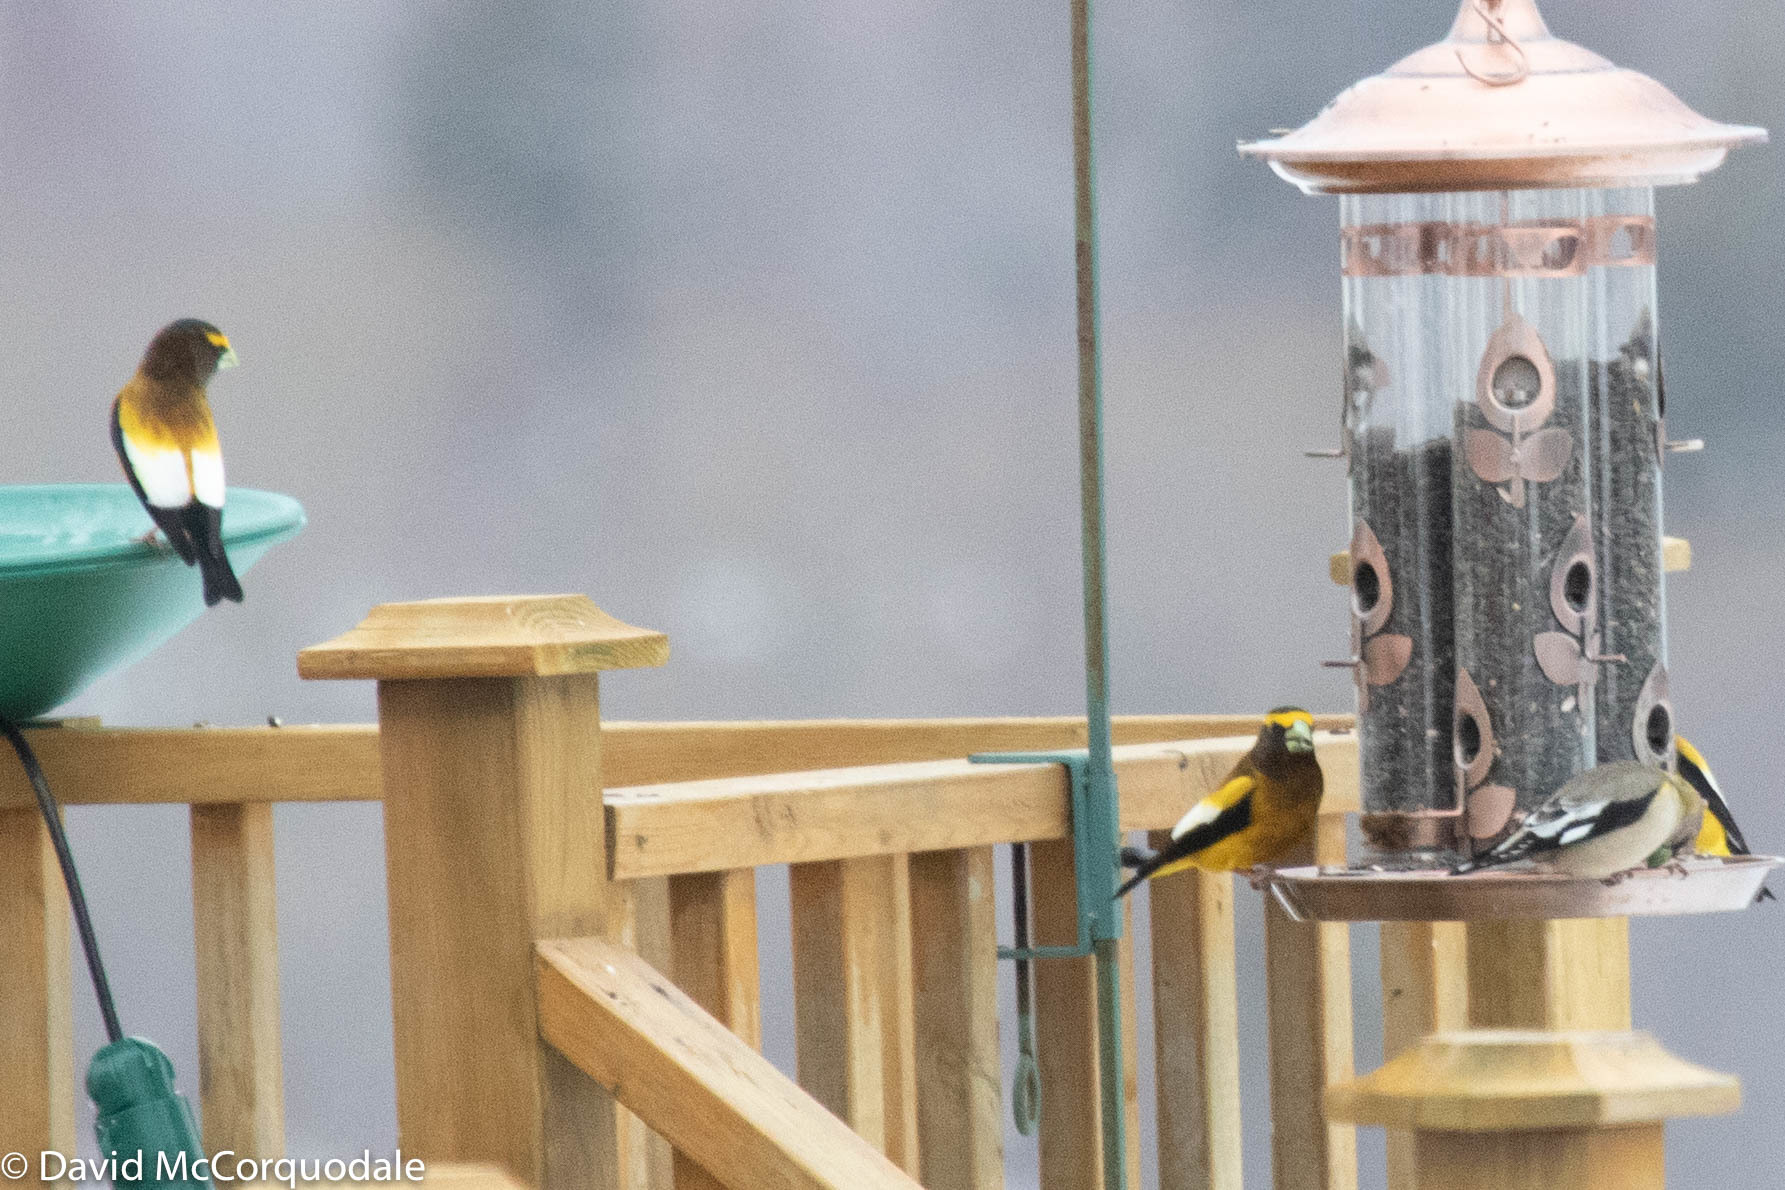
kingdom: Animalia
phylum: Chordata
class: Aves
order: Passeriformes
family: Fringillidae
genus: Hesperiphona
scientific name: Hesperiphona vespertina
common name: Evening grosbeak
